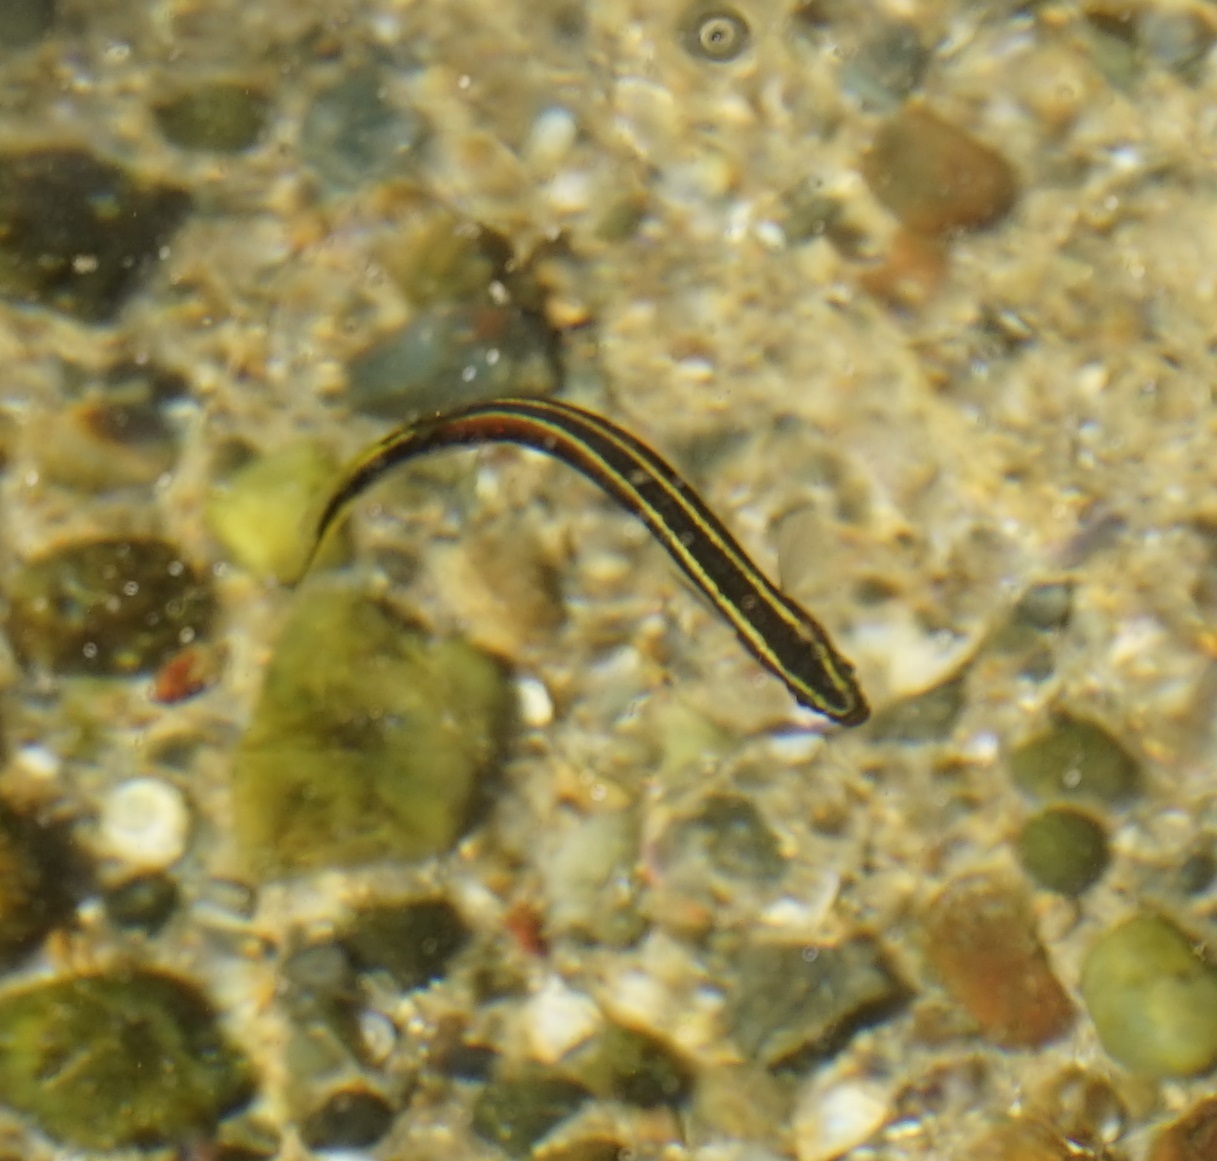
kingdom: Animalia
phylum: Chordata
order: Perciformes
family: Plesiopidae
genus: Trachinops
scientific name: Trachinops taeniatus
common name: Eastern hulafish
